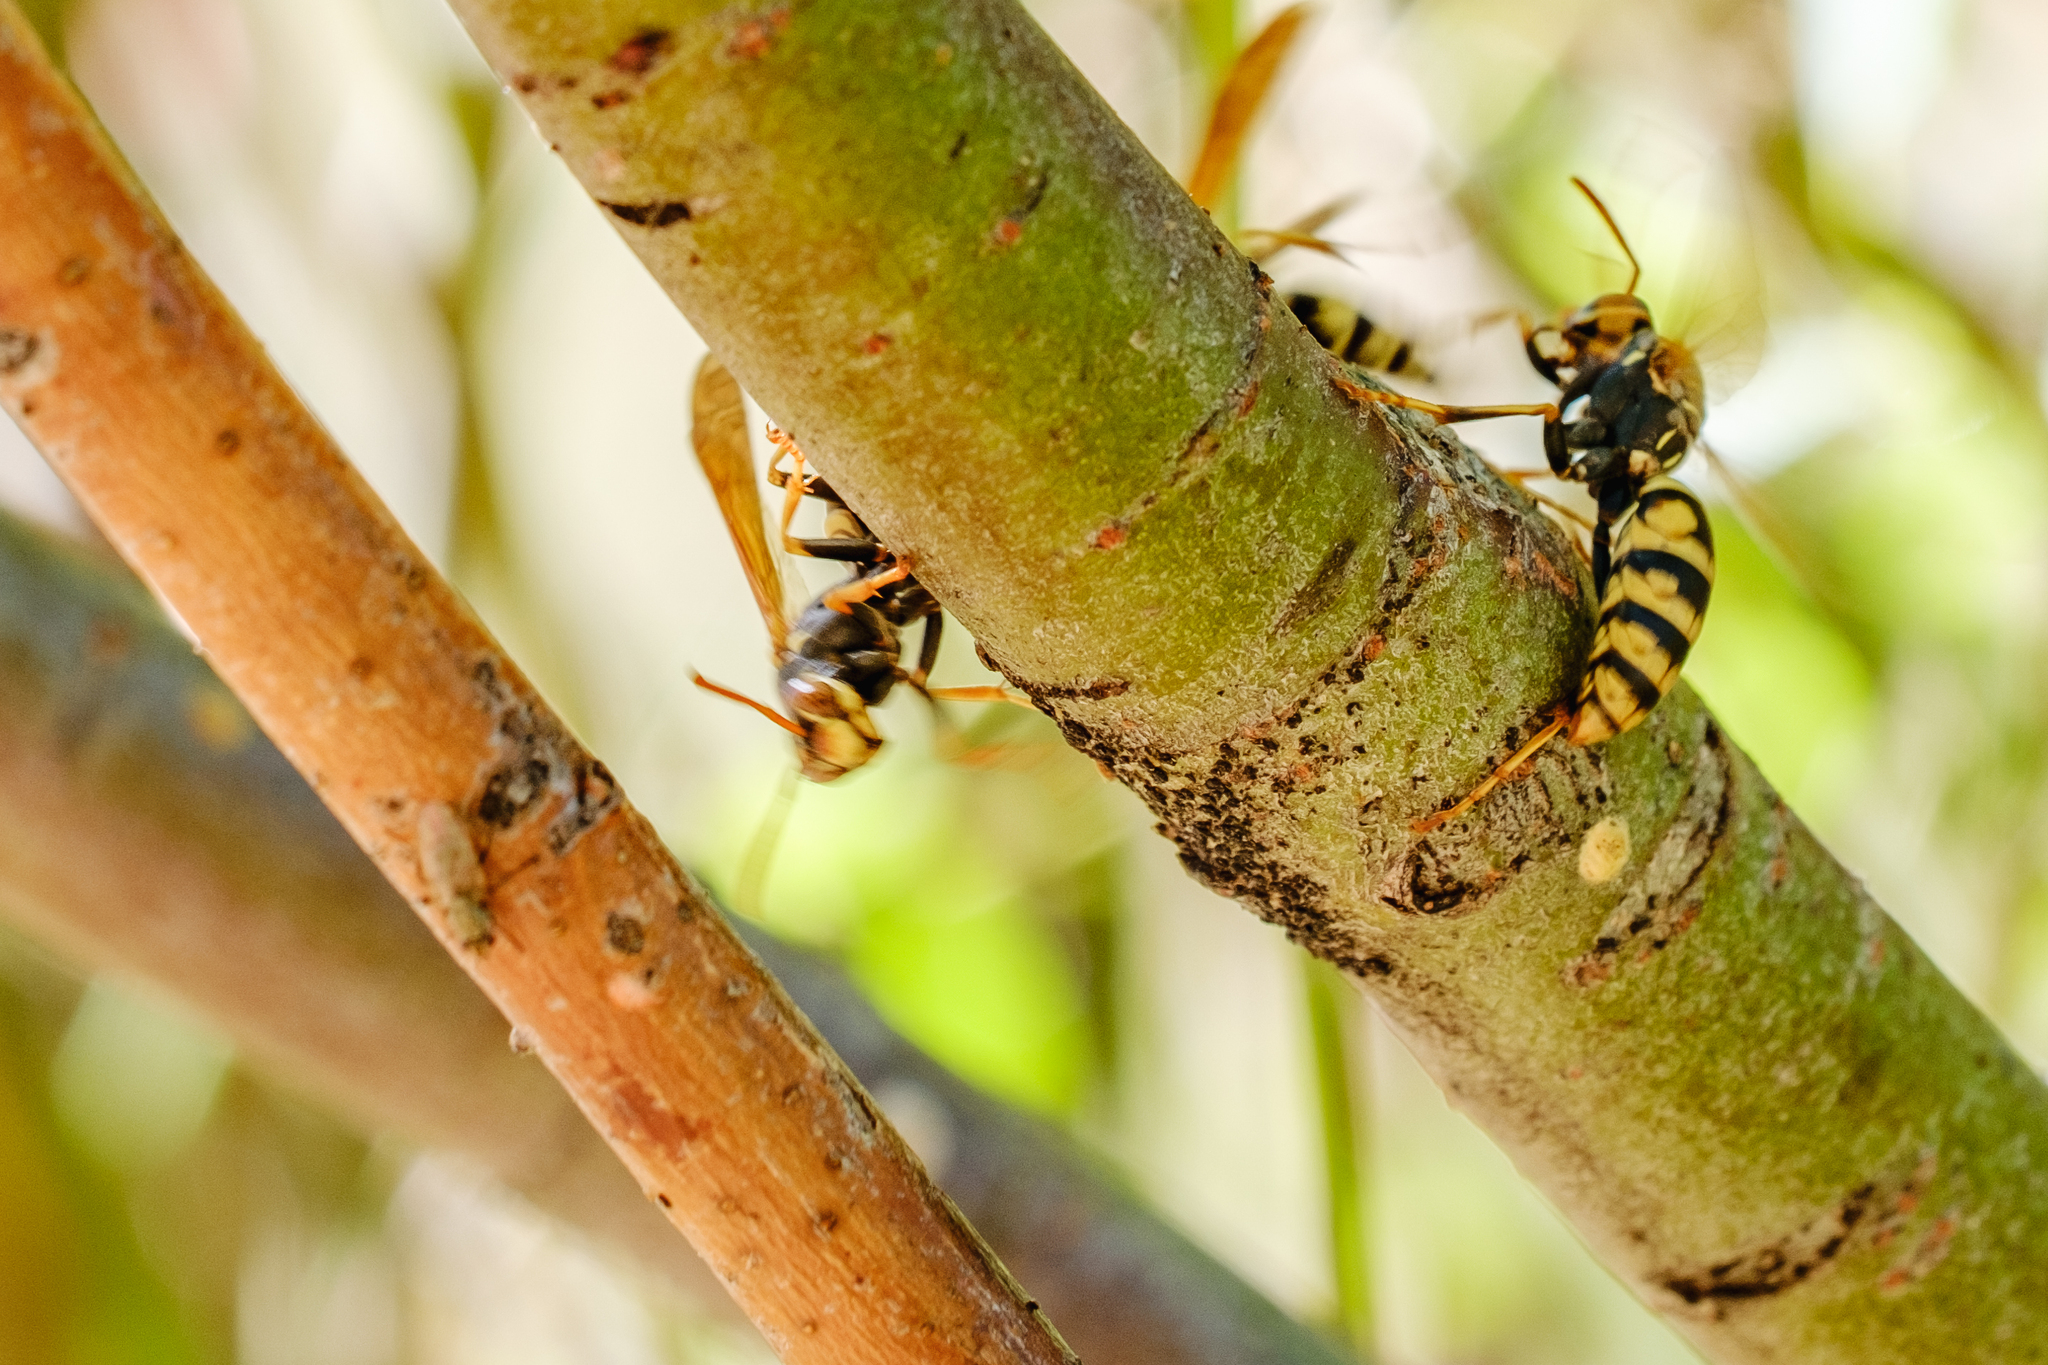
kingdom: Animalia
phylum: Arthropoda
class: Insecta
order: Hymenoptera
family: Eumenidae
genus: Polistes
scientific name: Polistes aurifer
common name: Paper wasp
